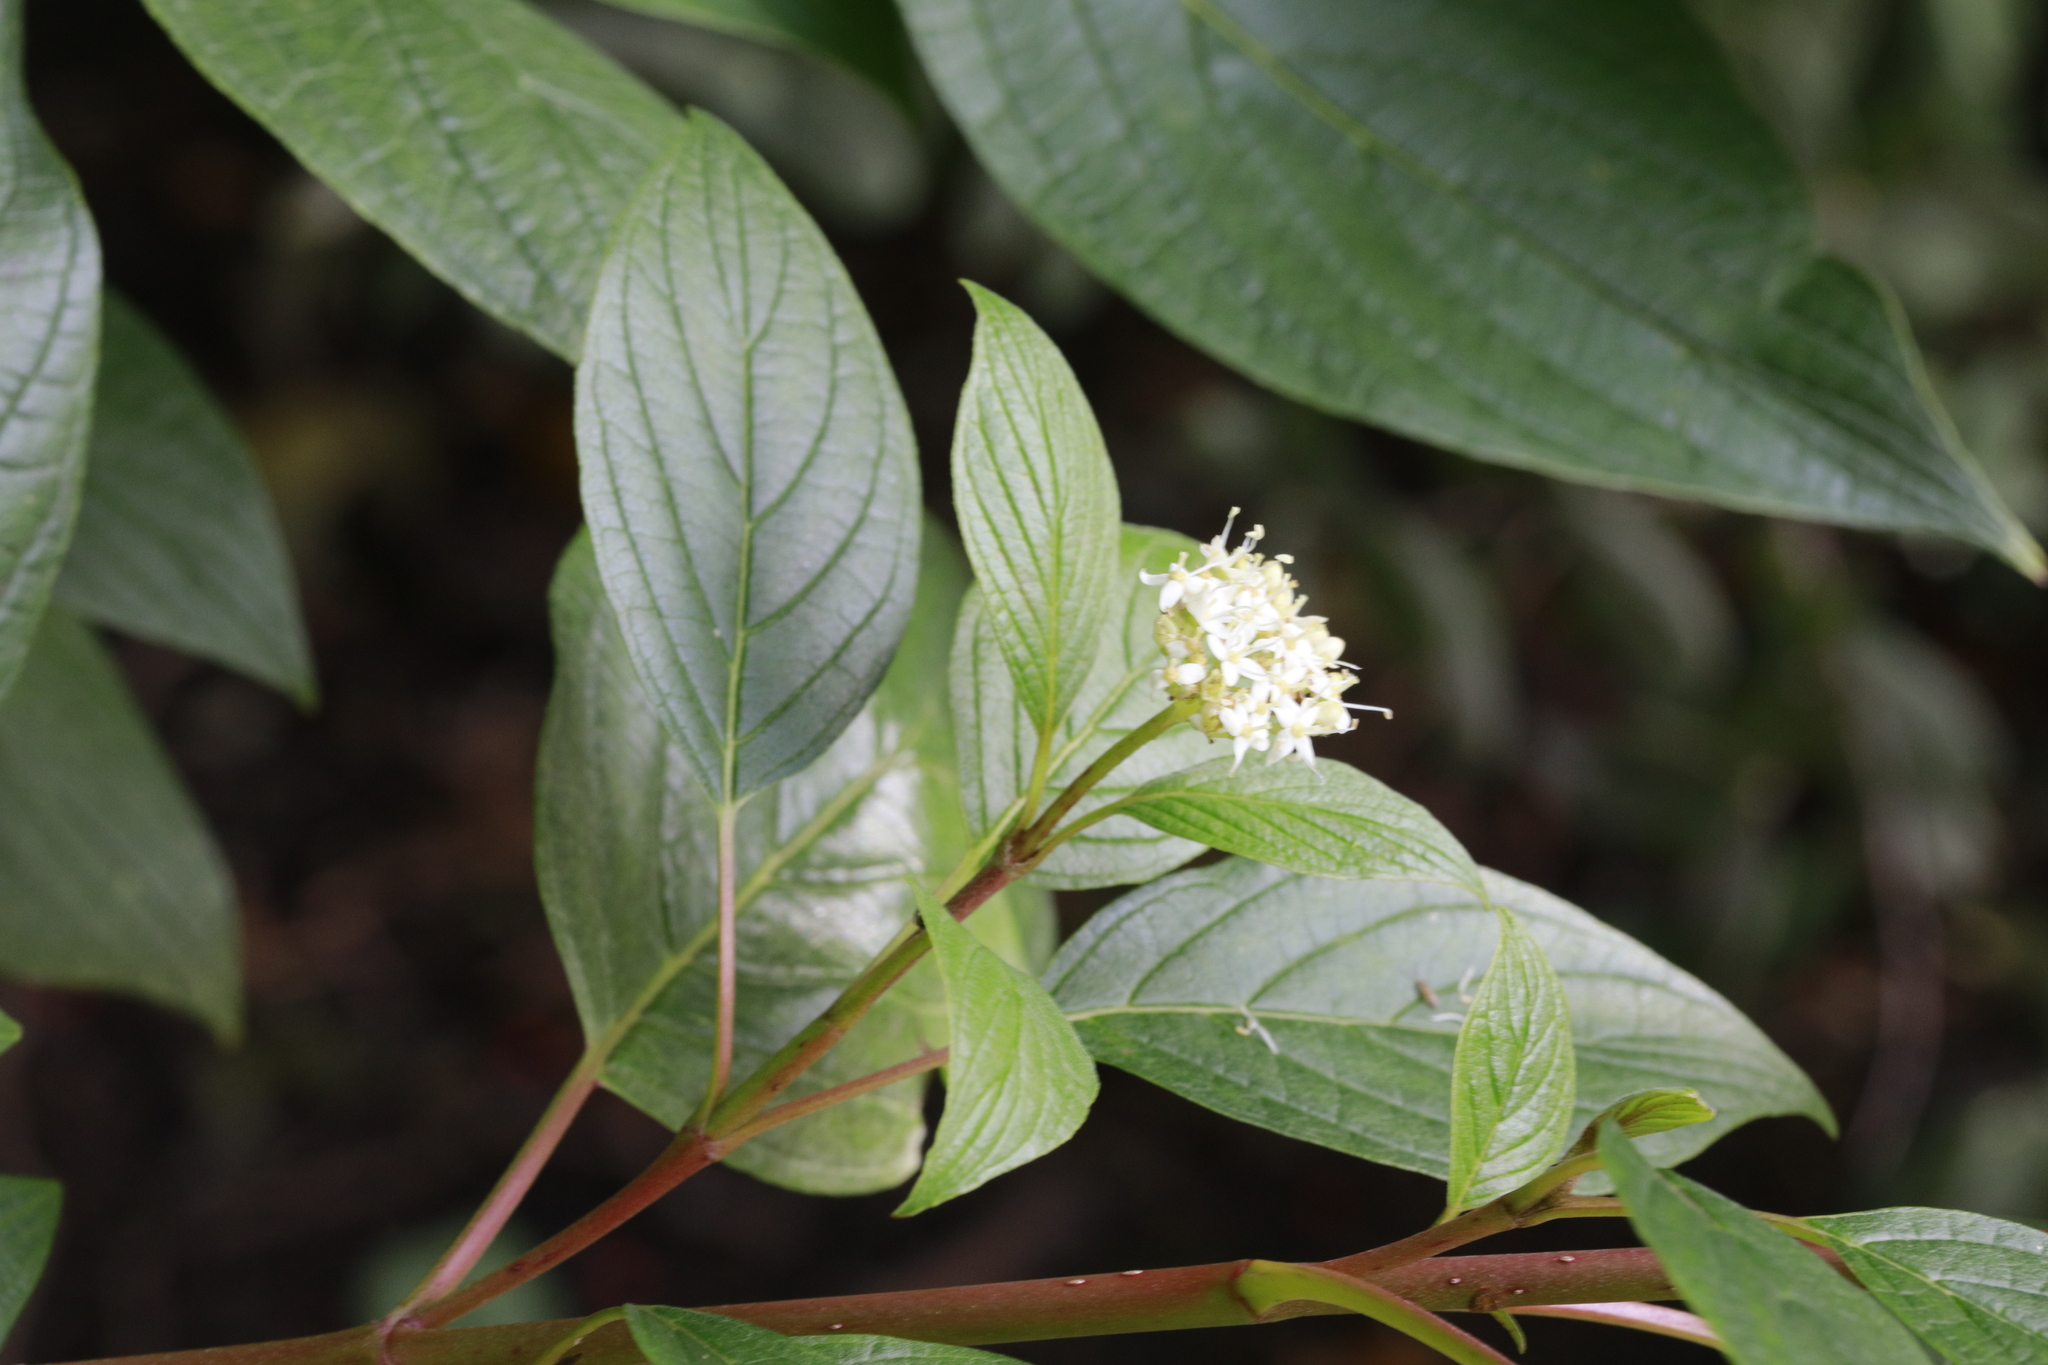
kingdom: Plantae
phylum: Tracheophyta
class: Magnoliopsida
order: Cornales
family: Cornaceae
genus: Cornus
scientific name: Cornus sericea
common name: Red-osier dogwood
